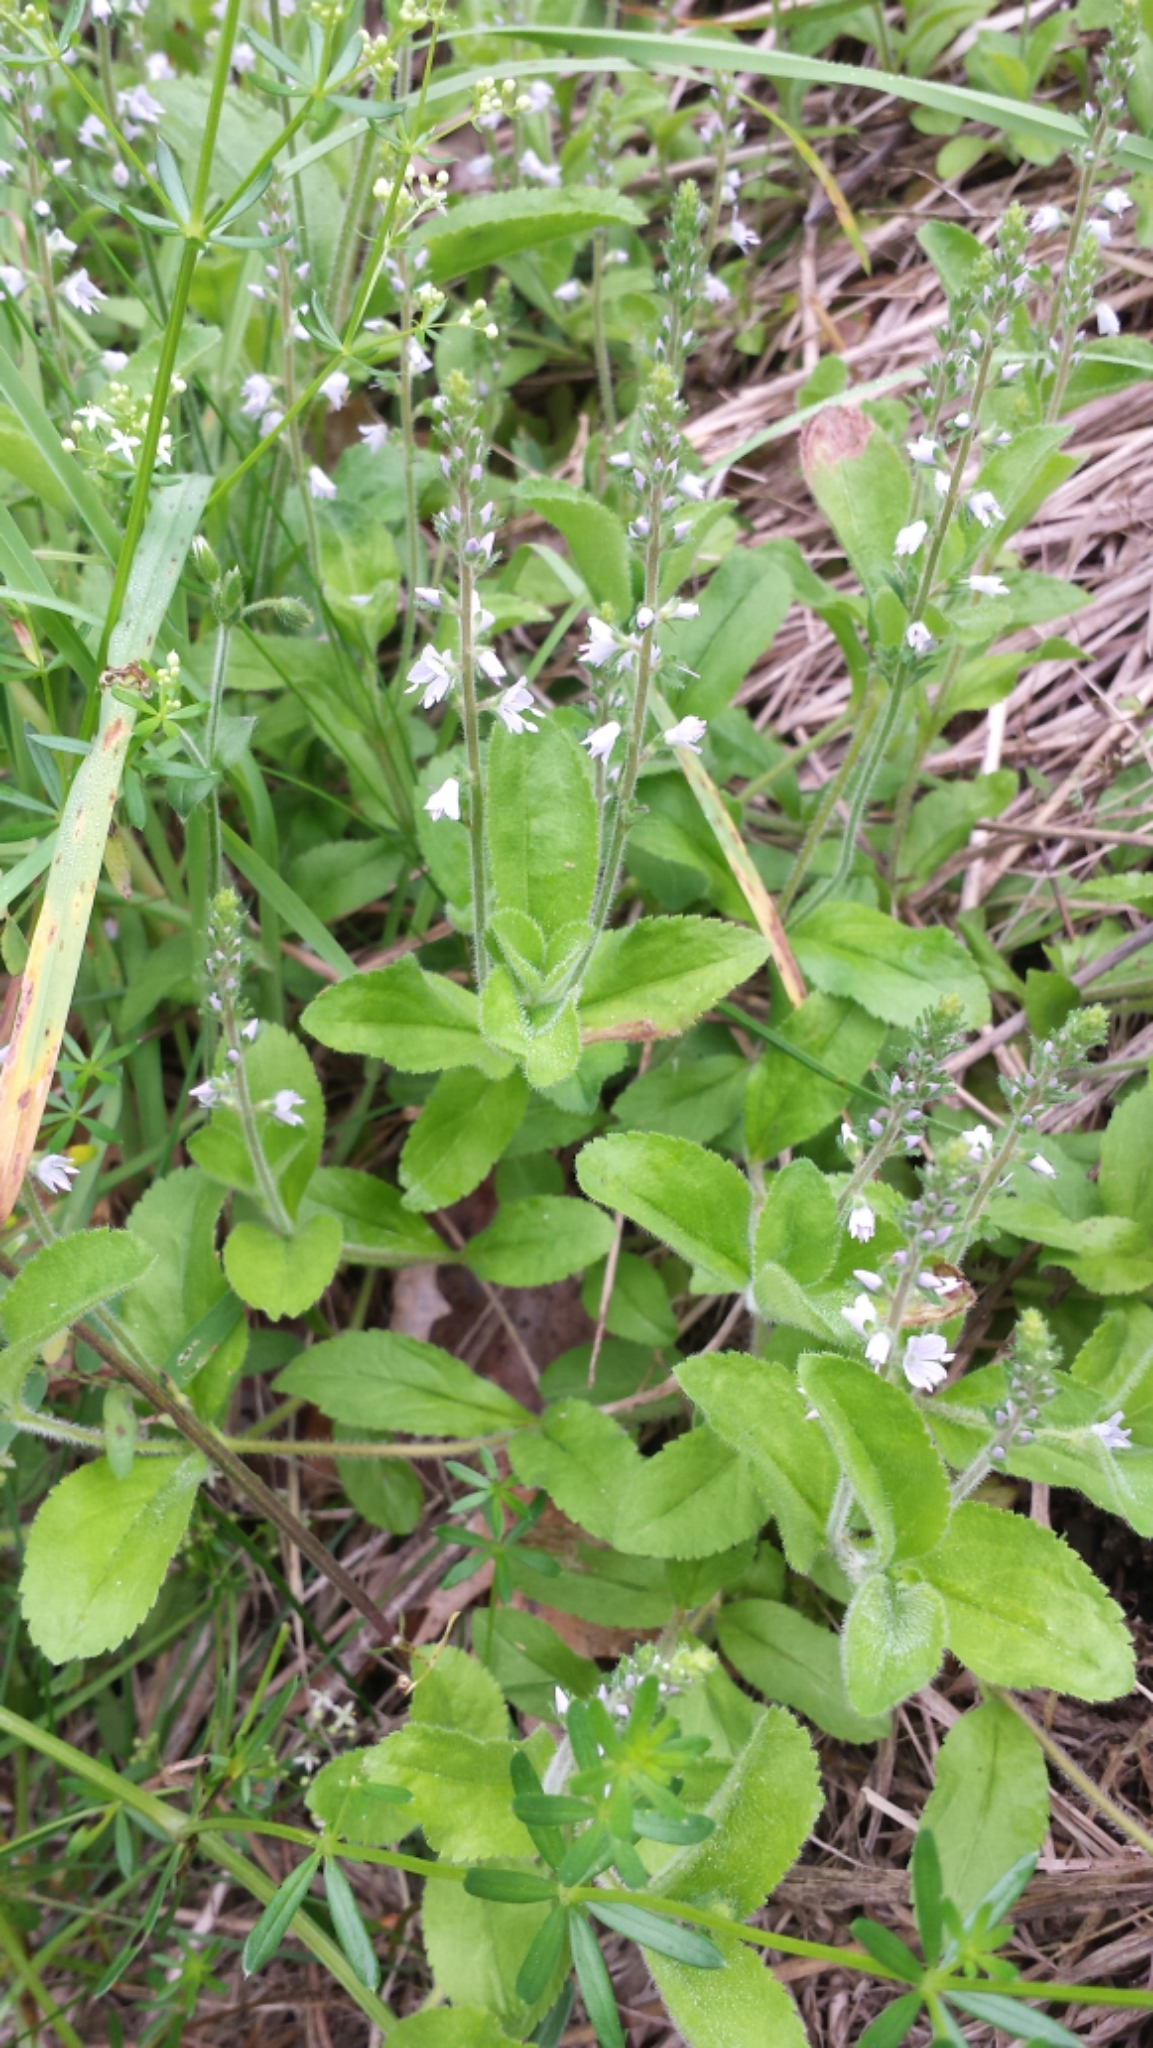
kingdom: Plantae
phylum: Tracheophyta
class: Magnoliopsida
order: Lamiales
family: Plantaginaceae
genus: Veronica
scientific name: Veronica officinalis
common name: Common speedwell
